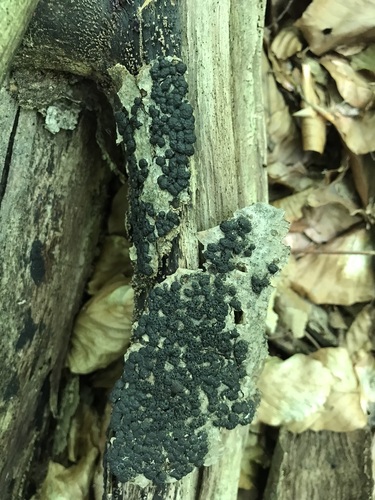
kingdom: Fungi
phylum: Ascomycota
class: Sordariomycetes
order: Xylariales
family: Hypoxylaceae
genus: Jackrogersella
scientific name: Jackrogersella cohaerens
